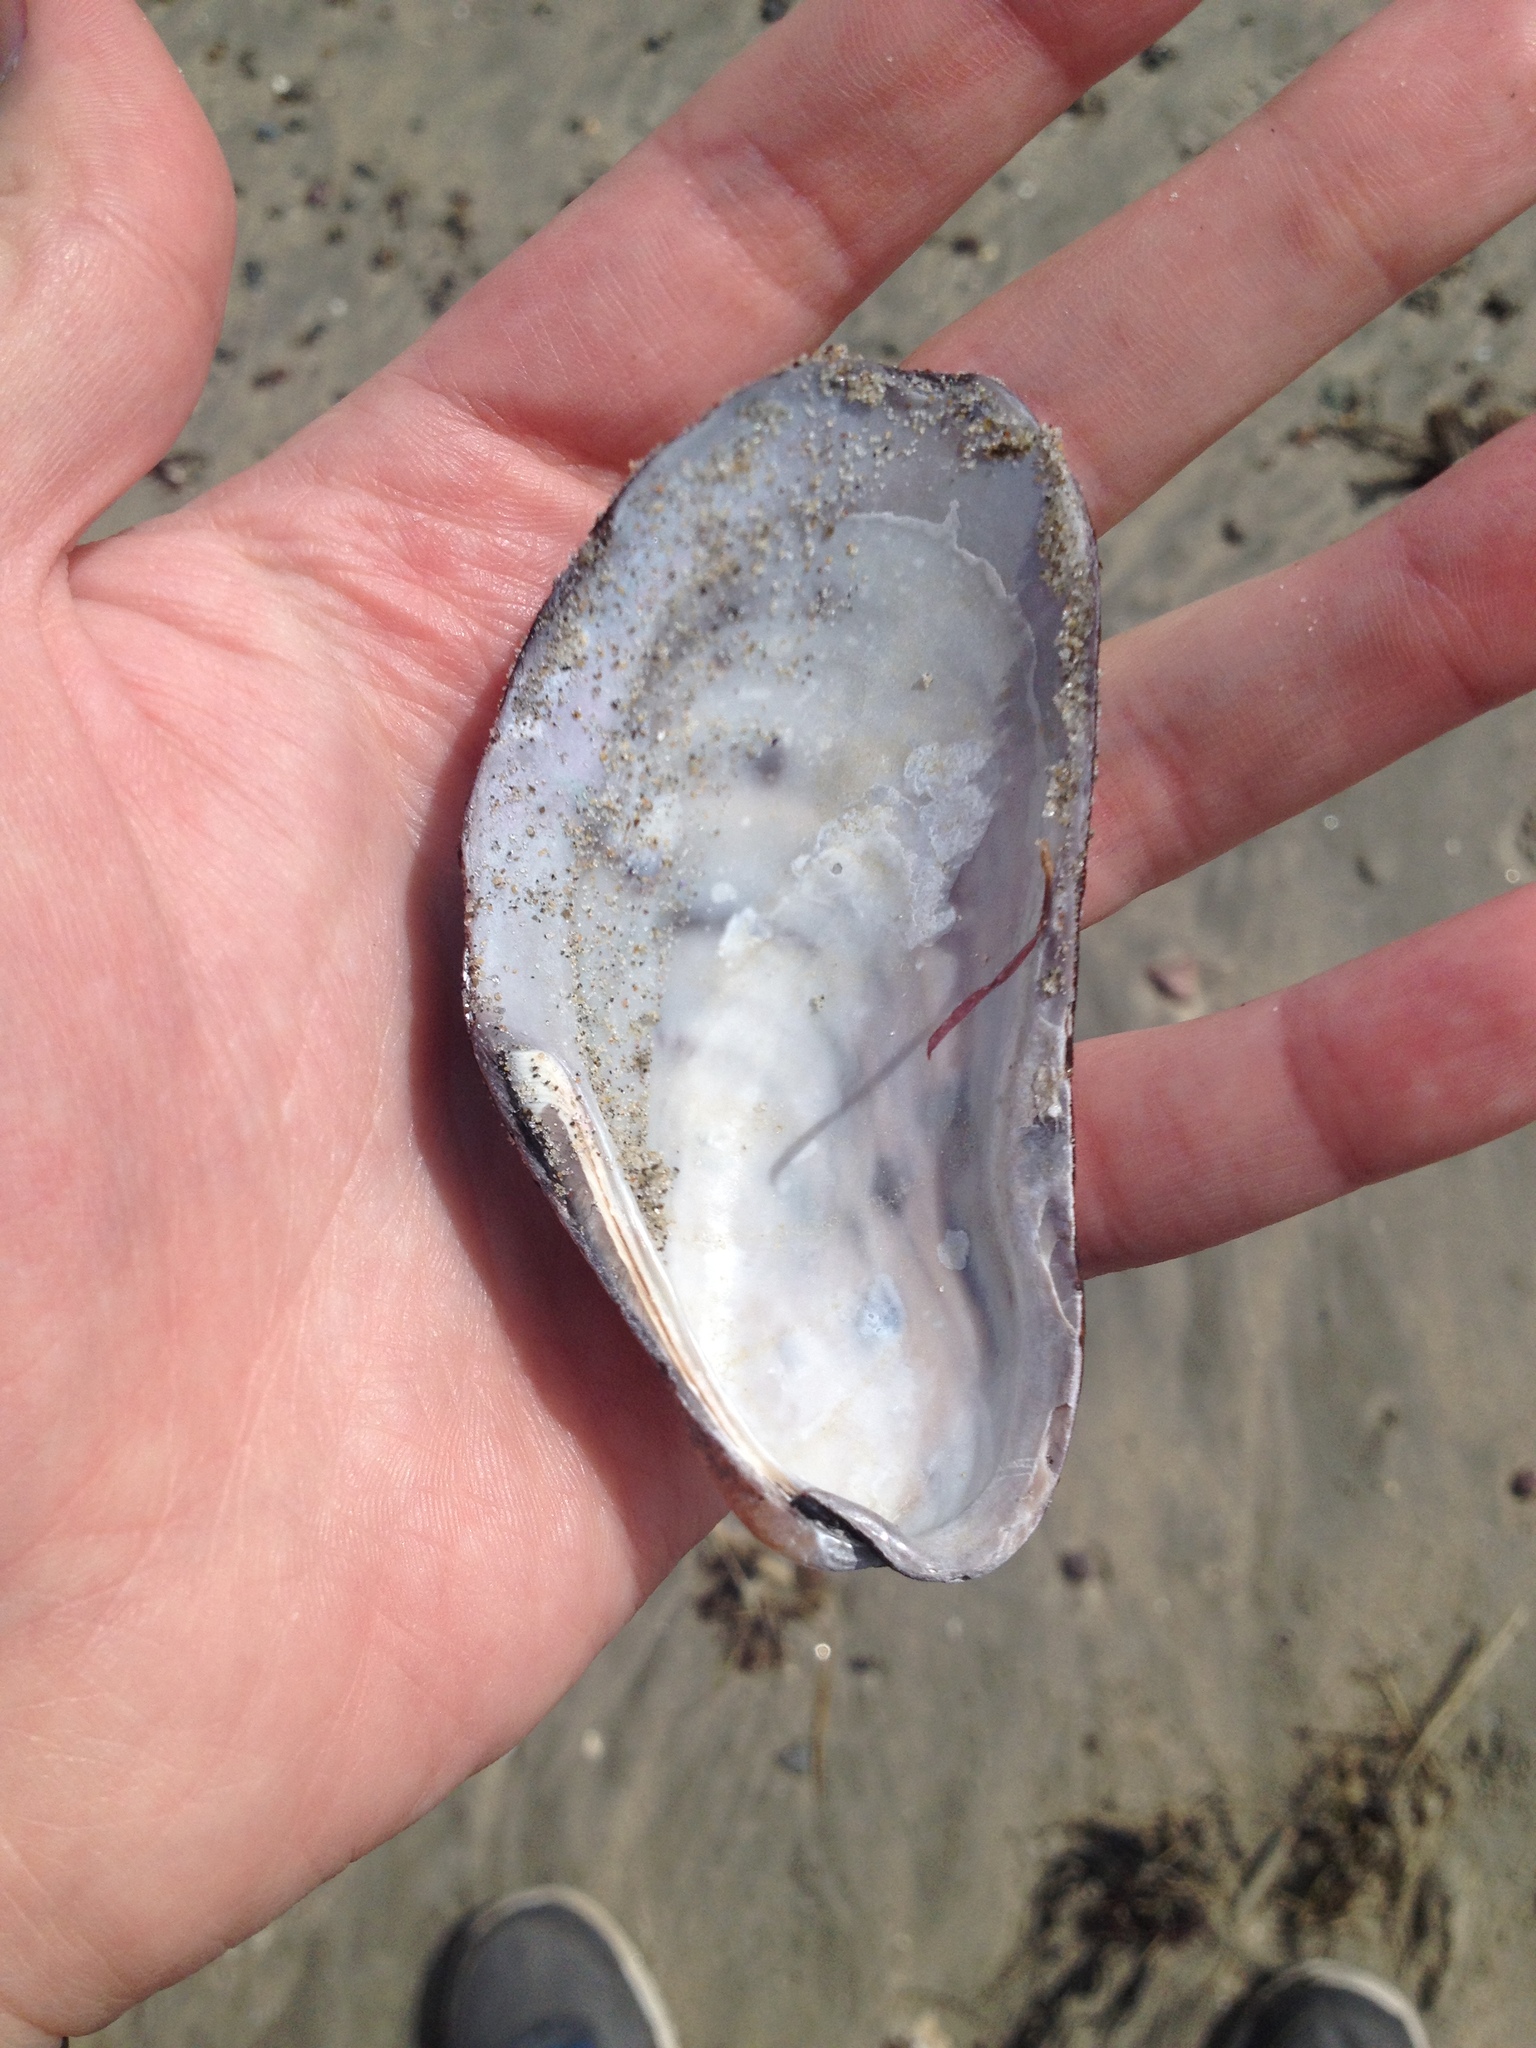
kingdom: Animalia
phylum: Mollusca
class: Bivalvia
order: Mytilida
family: Mytilidae
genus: Modiolus
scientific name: Modiolus modiolus
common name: Horse-mussel
